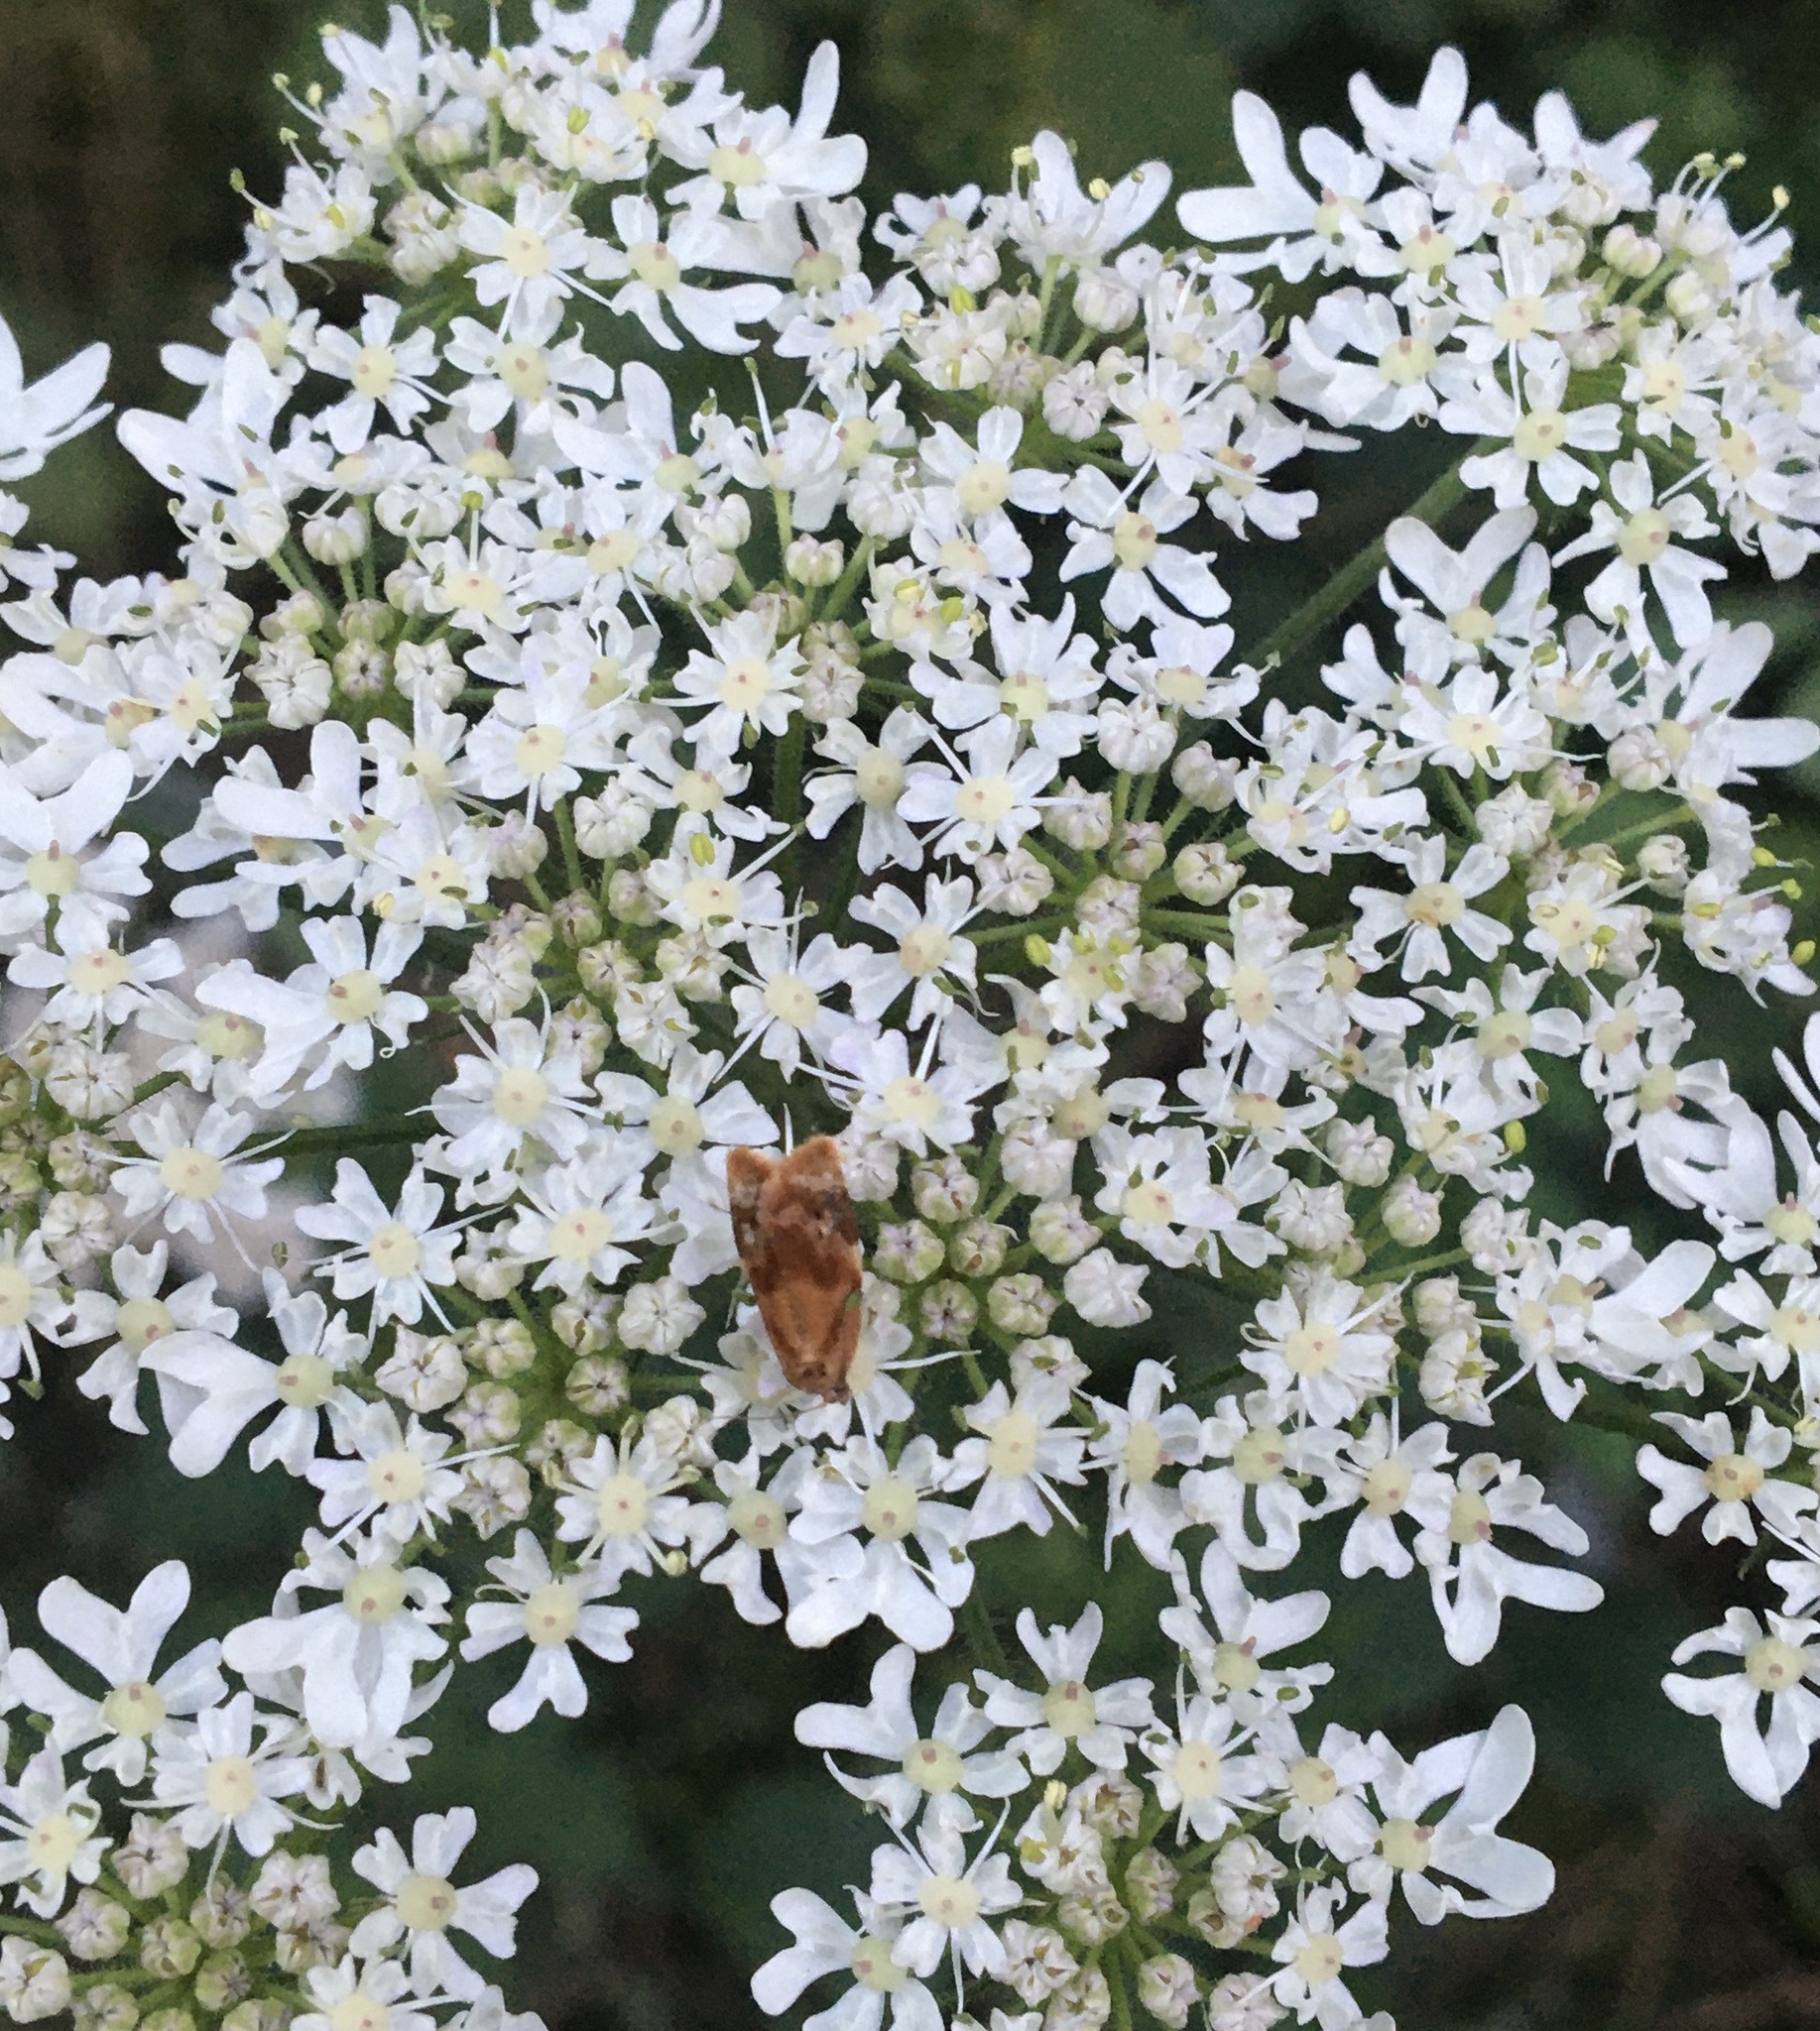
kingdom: Animalia
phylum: Arthropoda
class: Insecta
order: Lepidoptera
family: Tortricidae
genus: Ditula
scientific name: Ditula angustiorana
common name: Red-barred tortrix
